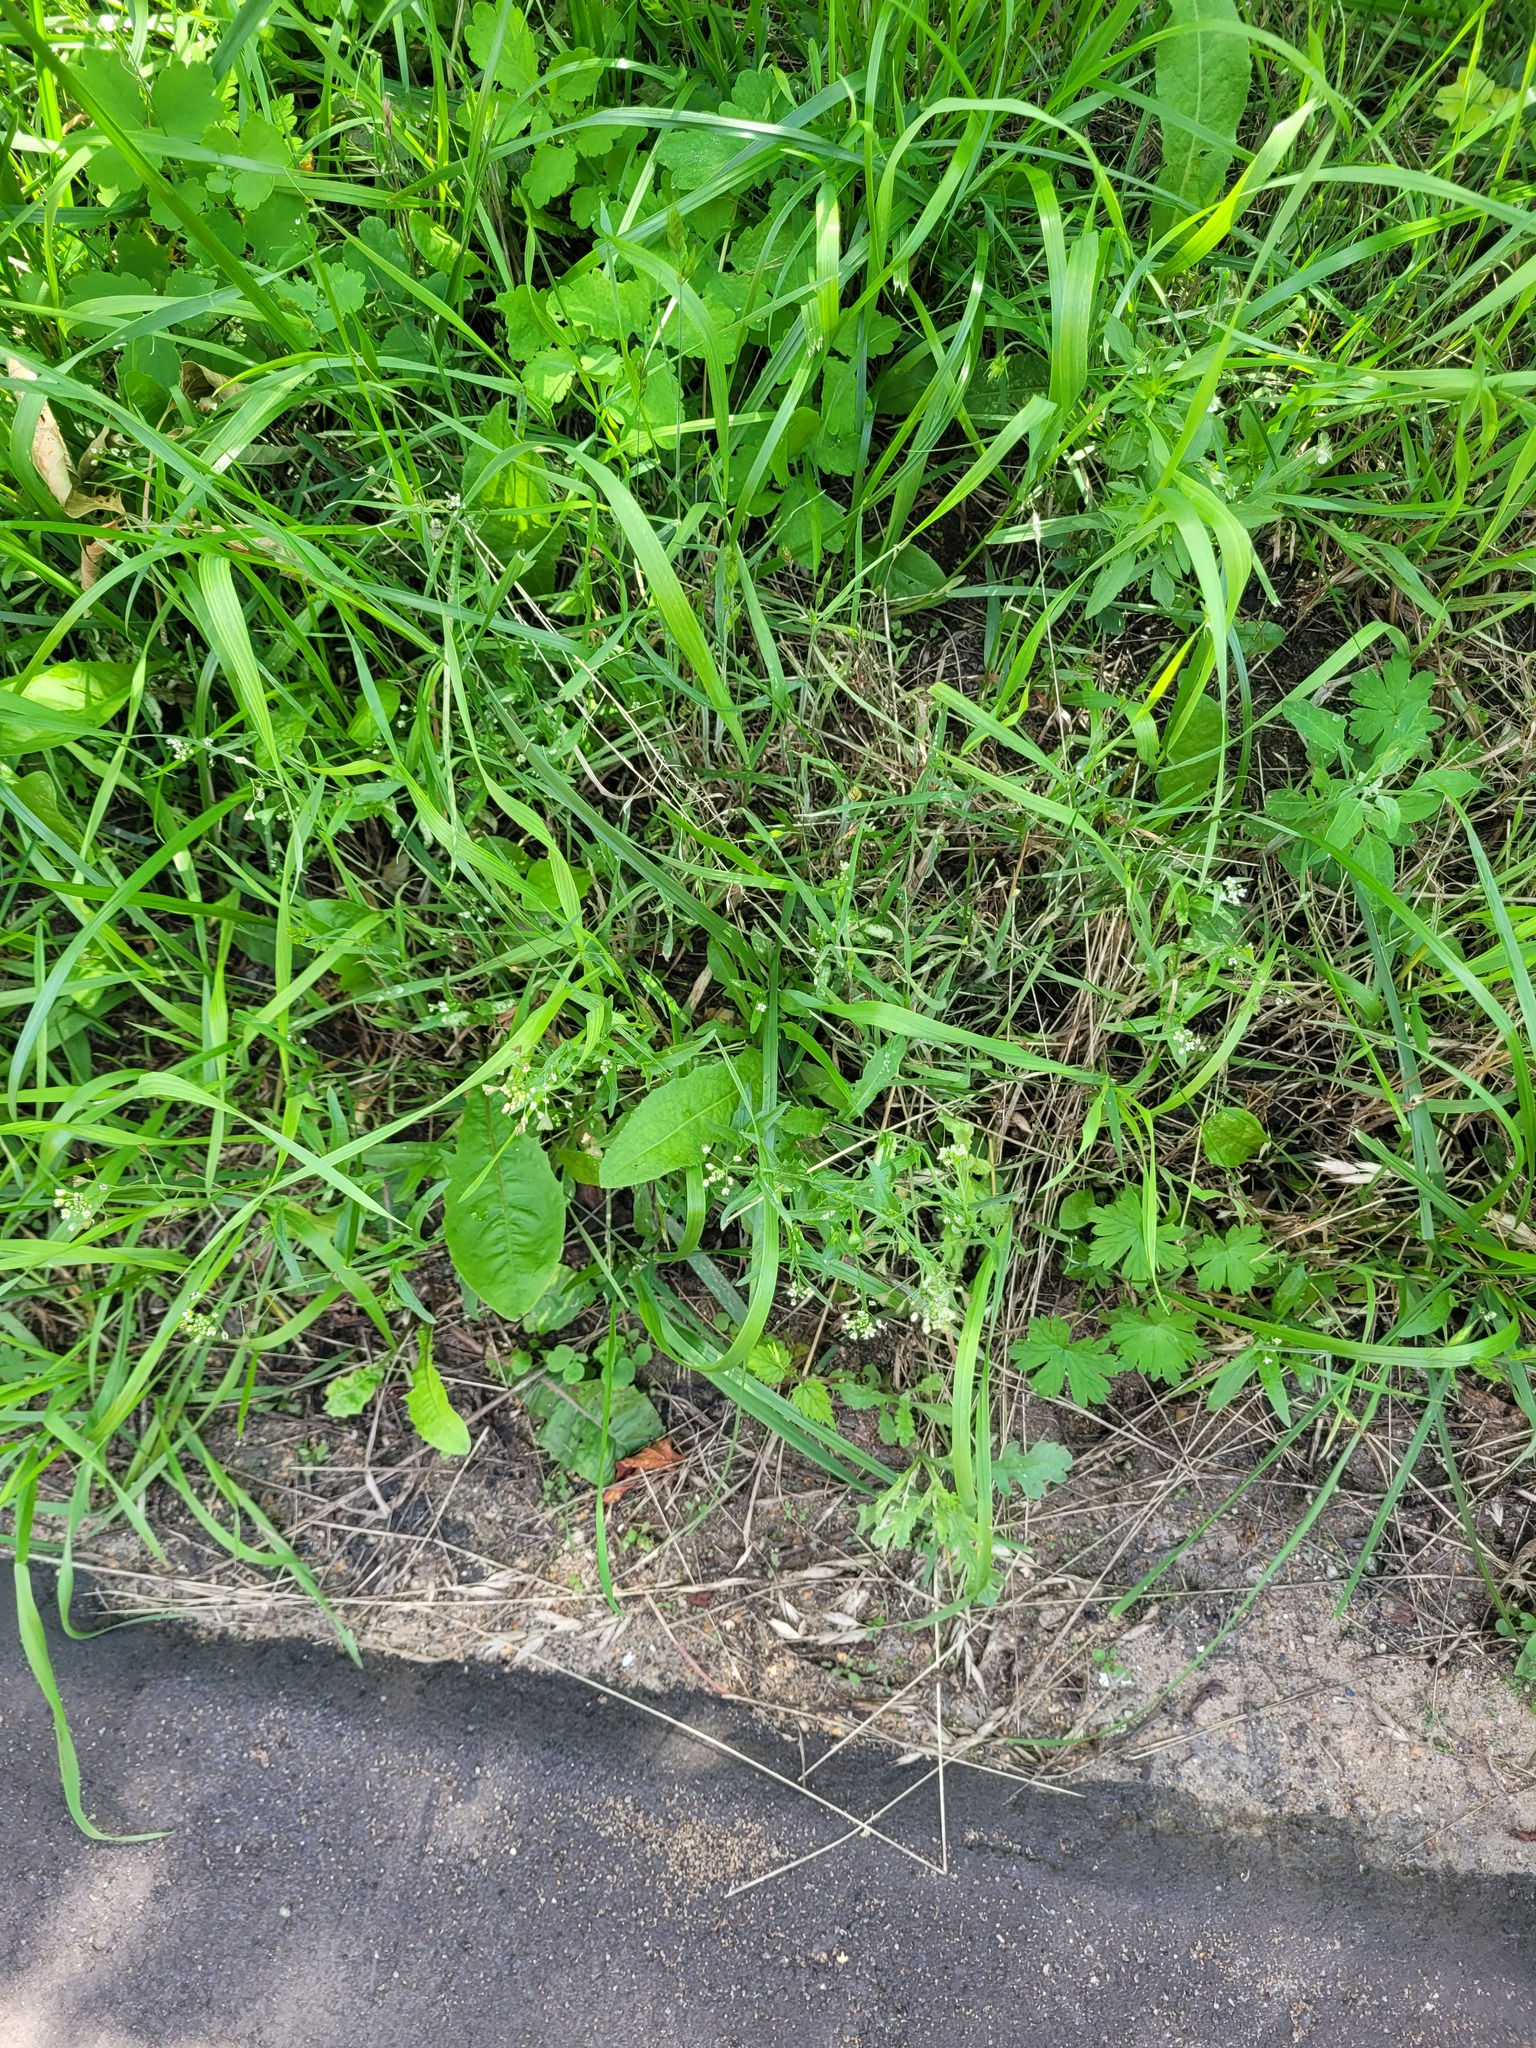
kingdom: Plantae
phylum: Tracheophyta
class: Magnoliopsida
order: Brassicales
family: Brassicaceae
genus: Capsella
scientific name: Capsella bursa-pastoris
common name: Shepherd's purse
